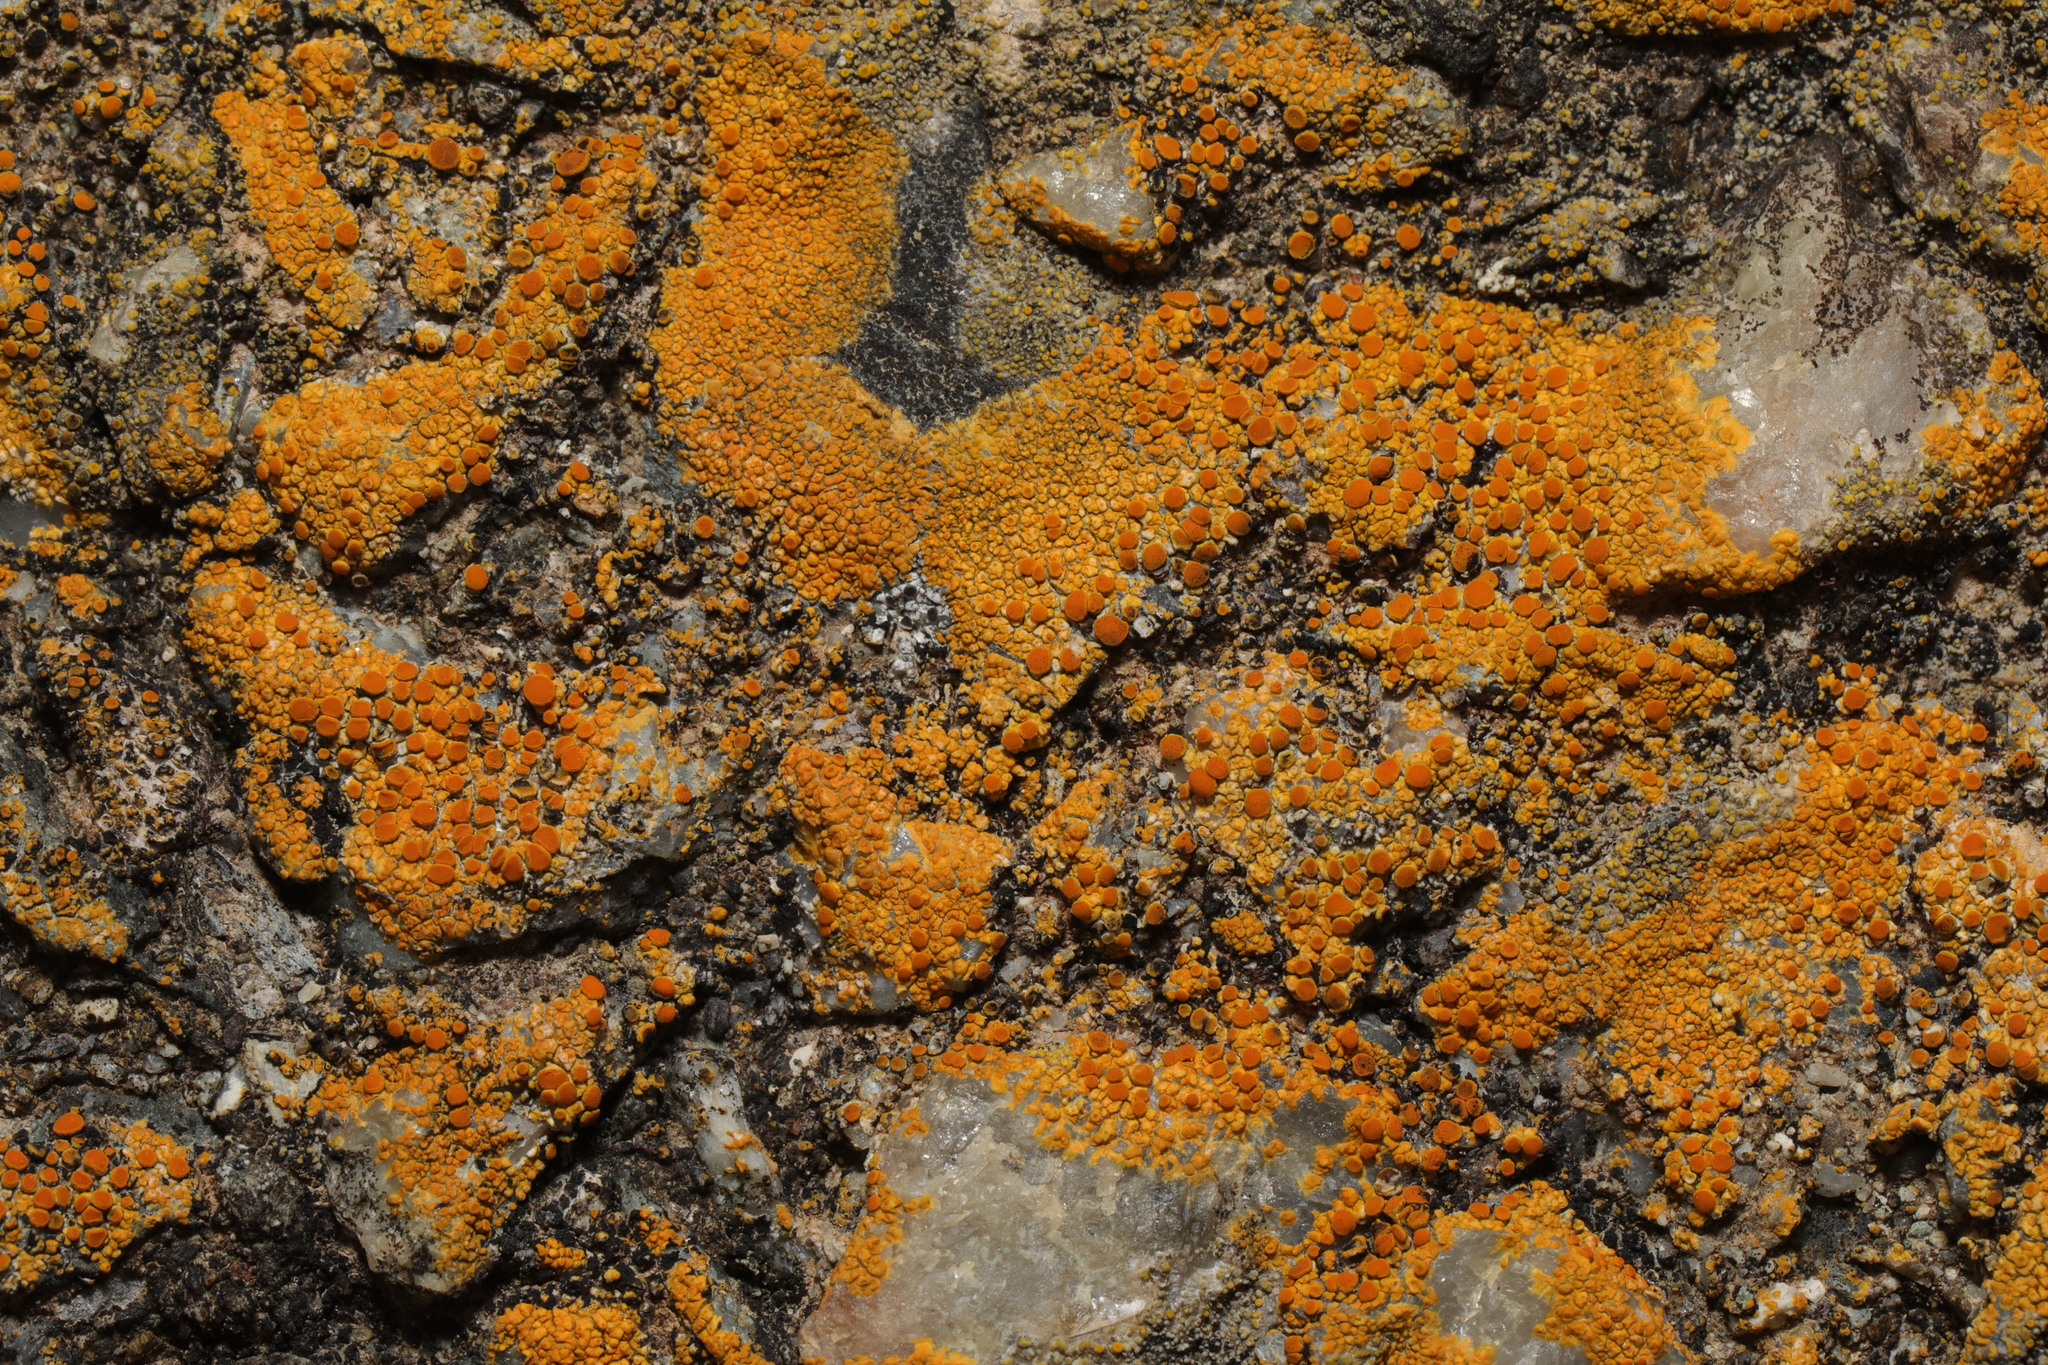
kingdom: Fungi
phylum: Ascomycota
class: Lecanoromycetes
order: Teloschistales
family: Teloschistaceae
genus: Flavoplaca
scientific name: Flavoplaca marina
